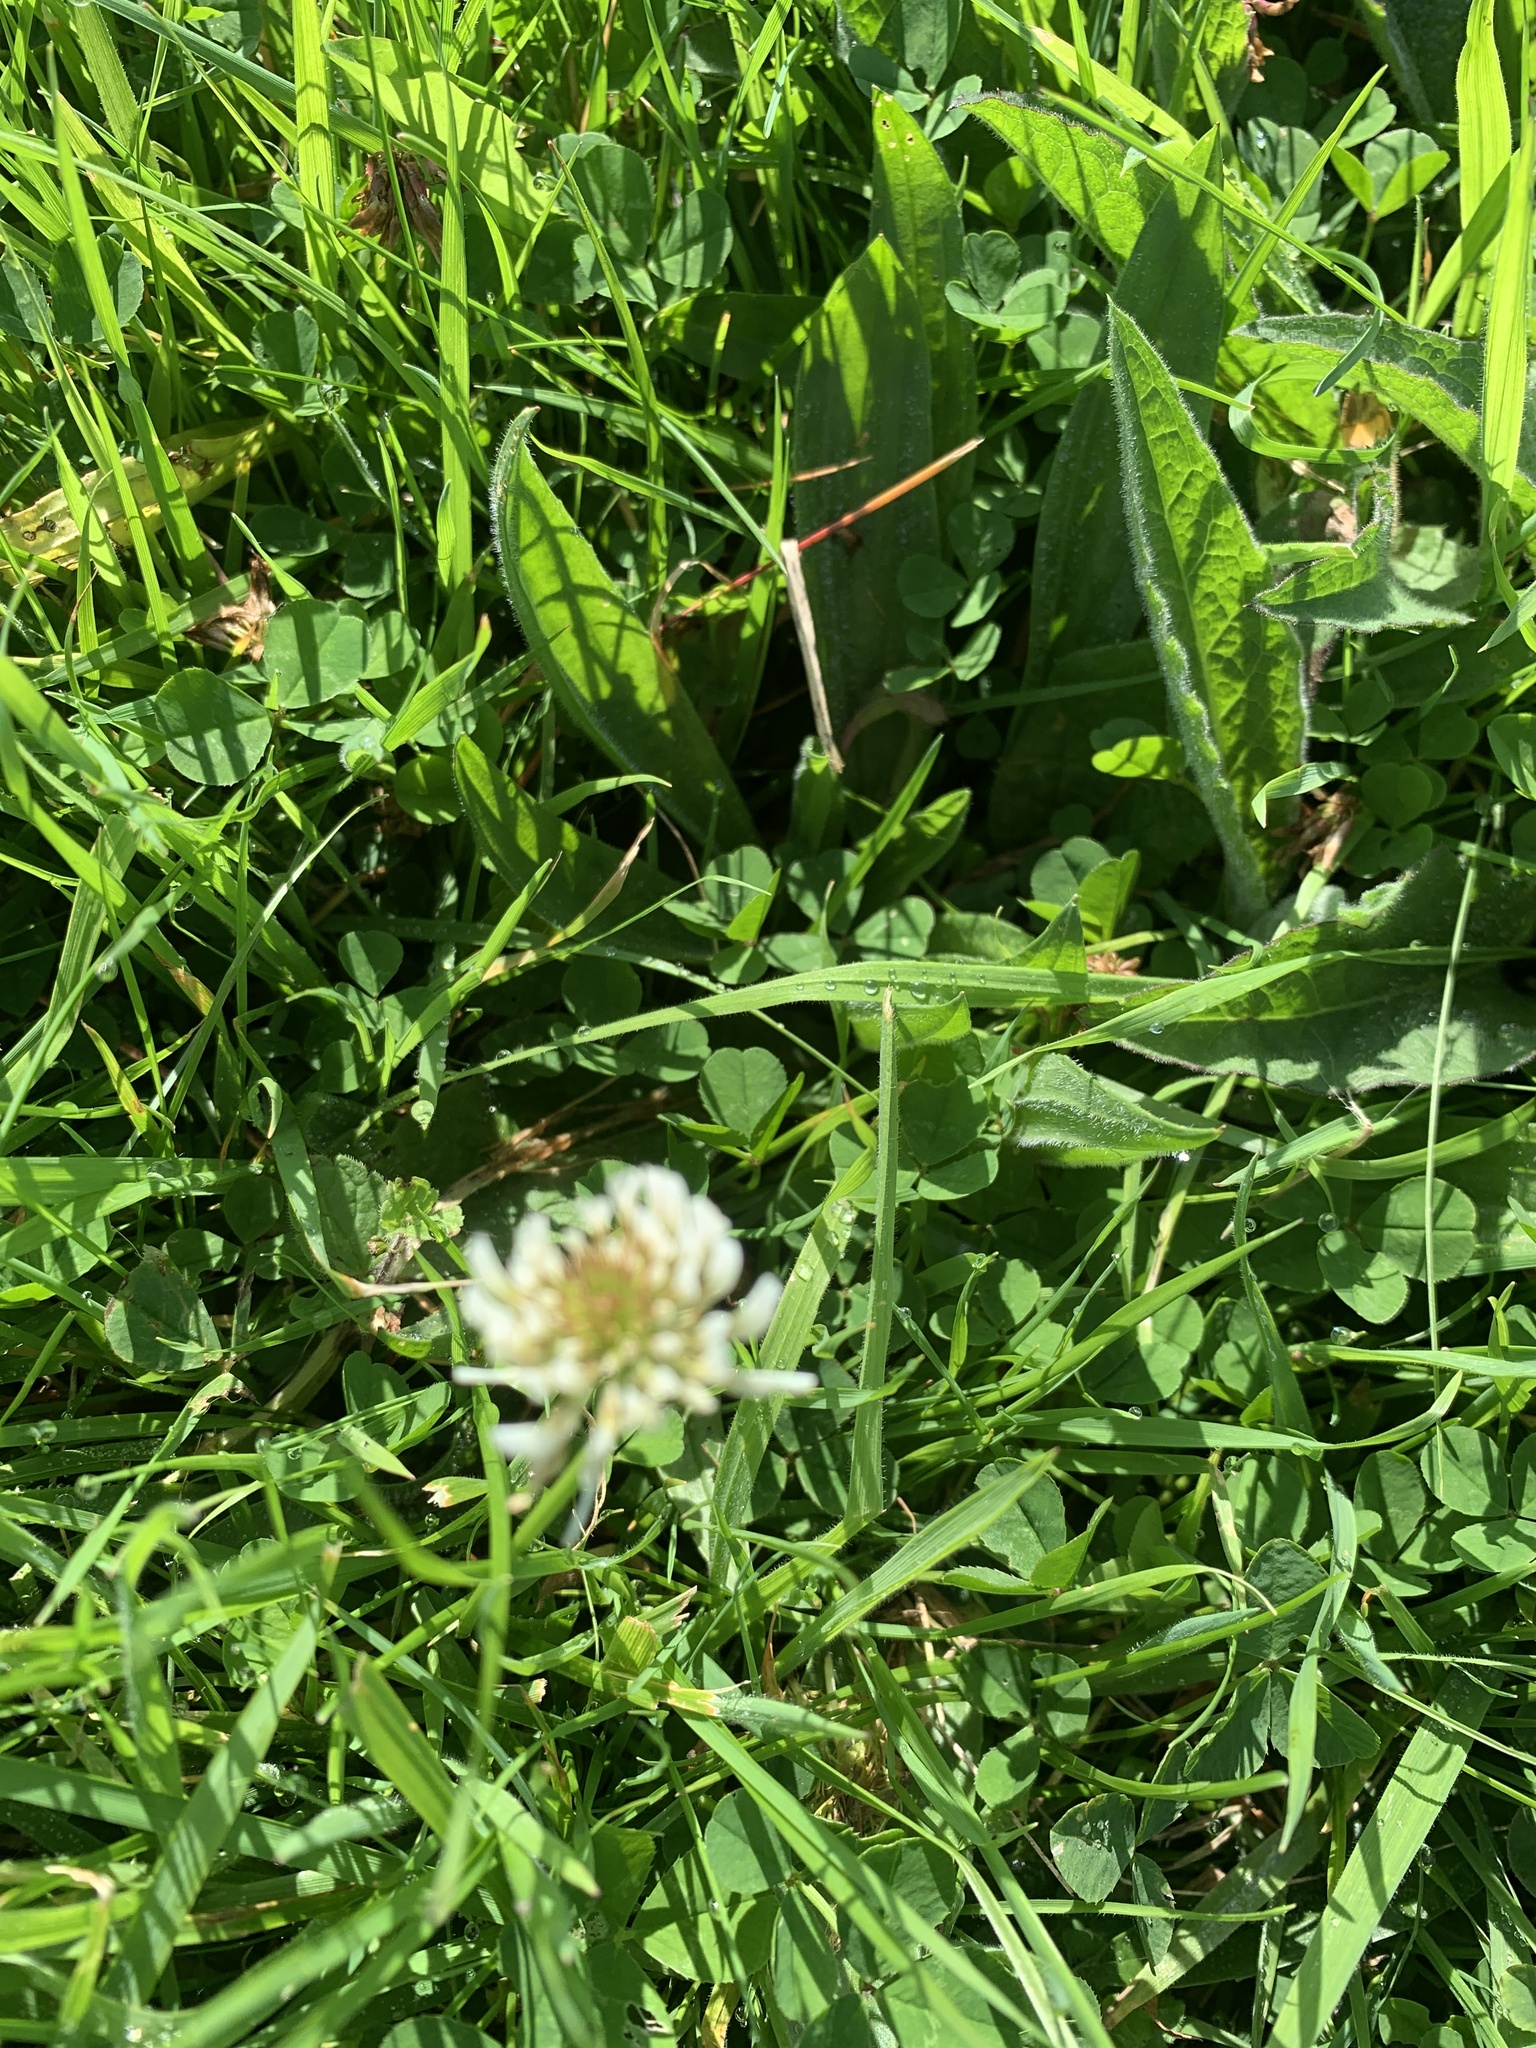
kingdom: Plantae
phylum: Tracheophyta
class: Magnoliopsida
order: Fabales
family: Fabaceae
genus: Trifolium
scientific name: Trifolium repens
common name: White clover
